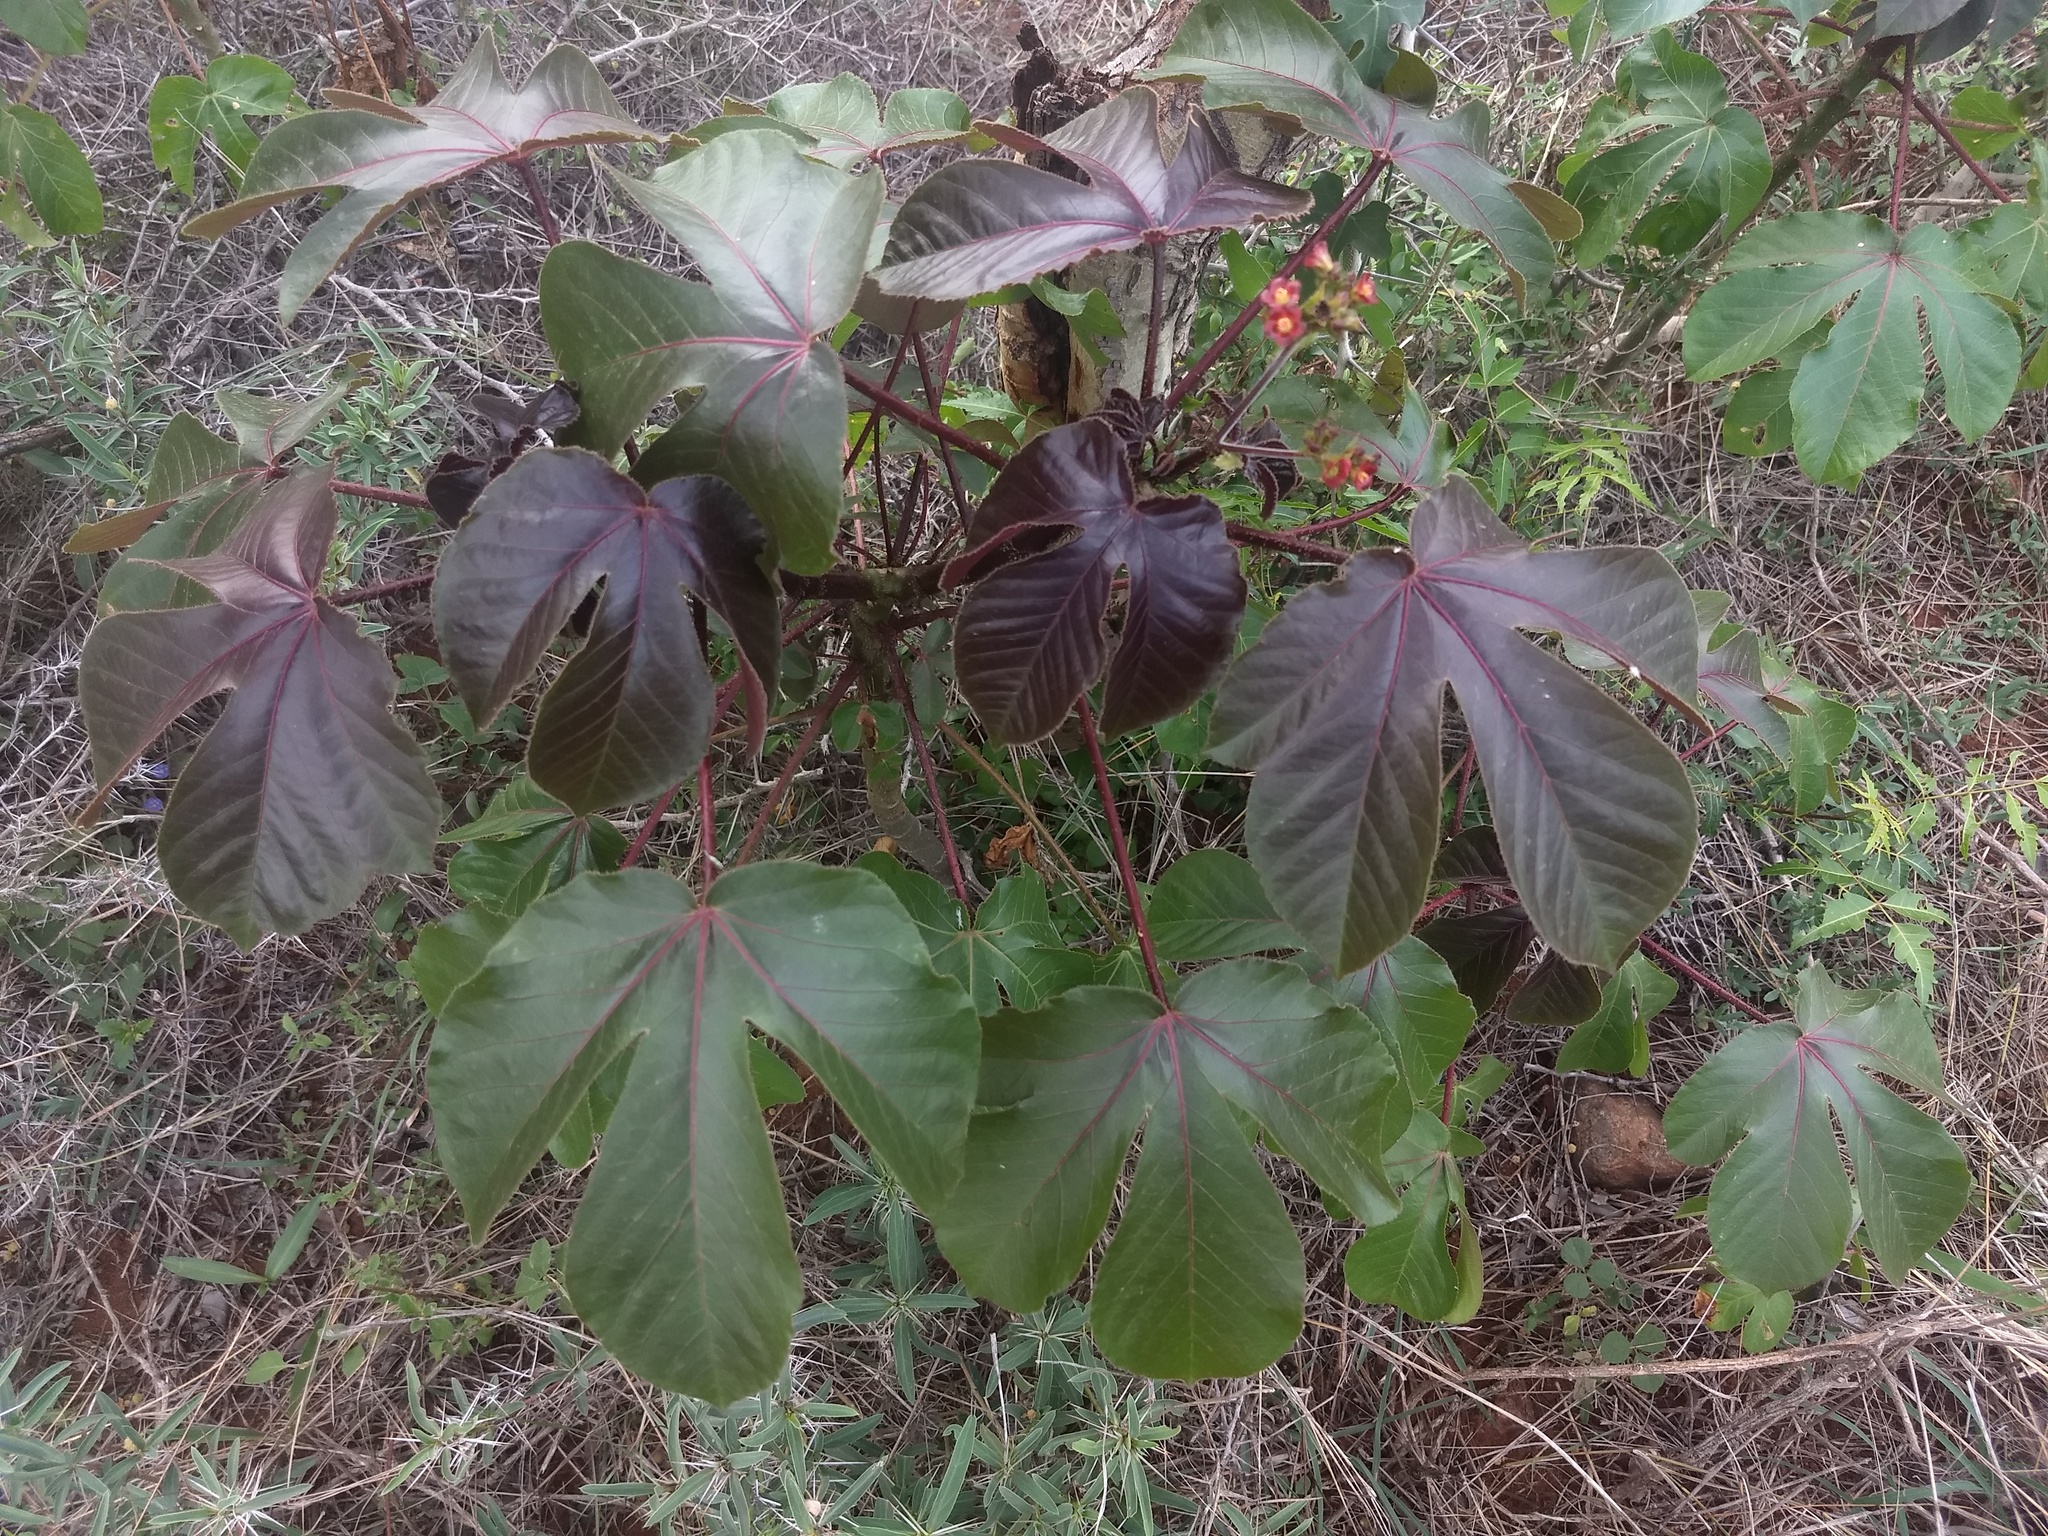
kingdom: Plantae
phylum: Tracheophyta
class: Magnoliopsida
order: Malpighiales
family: Euphorbiaceae
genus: Jatropha
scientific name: Jatropha gossypiifolia
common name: Bellyache bush
